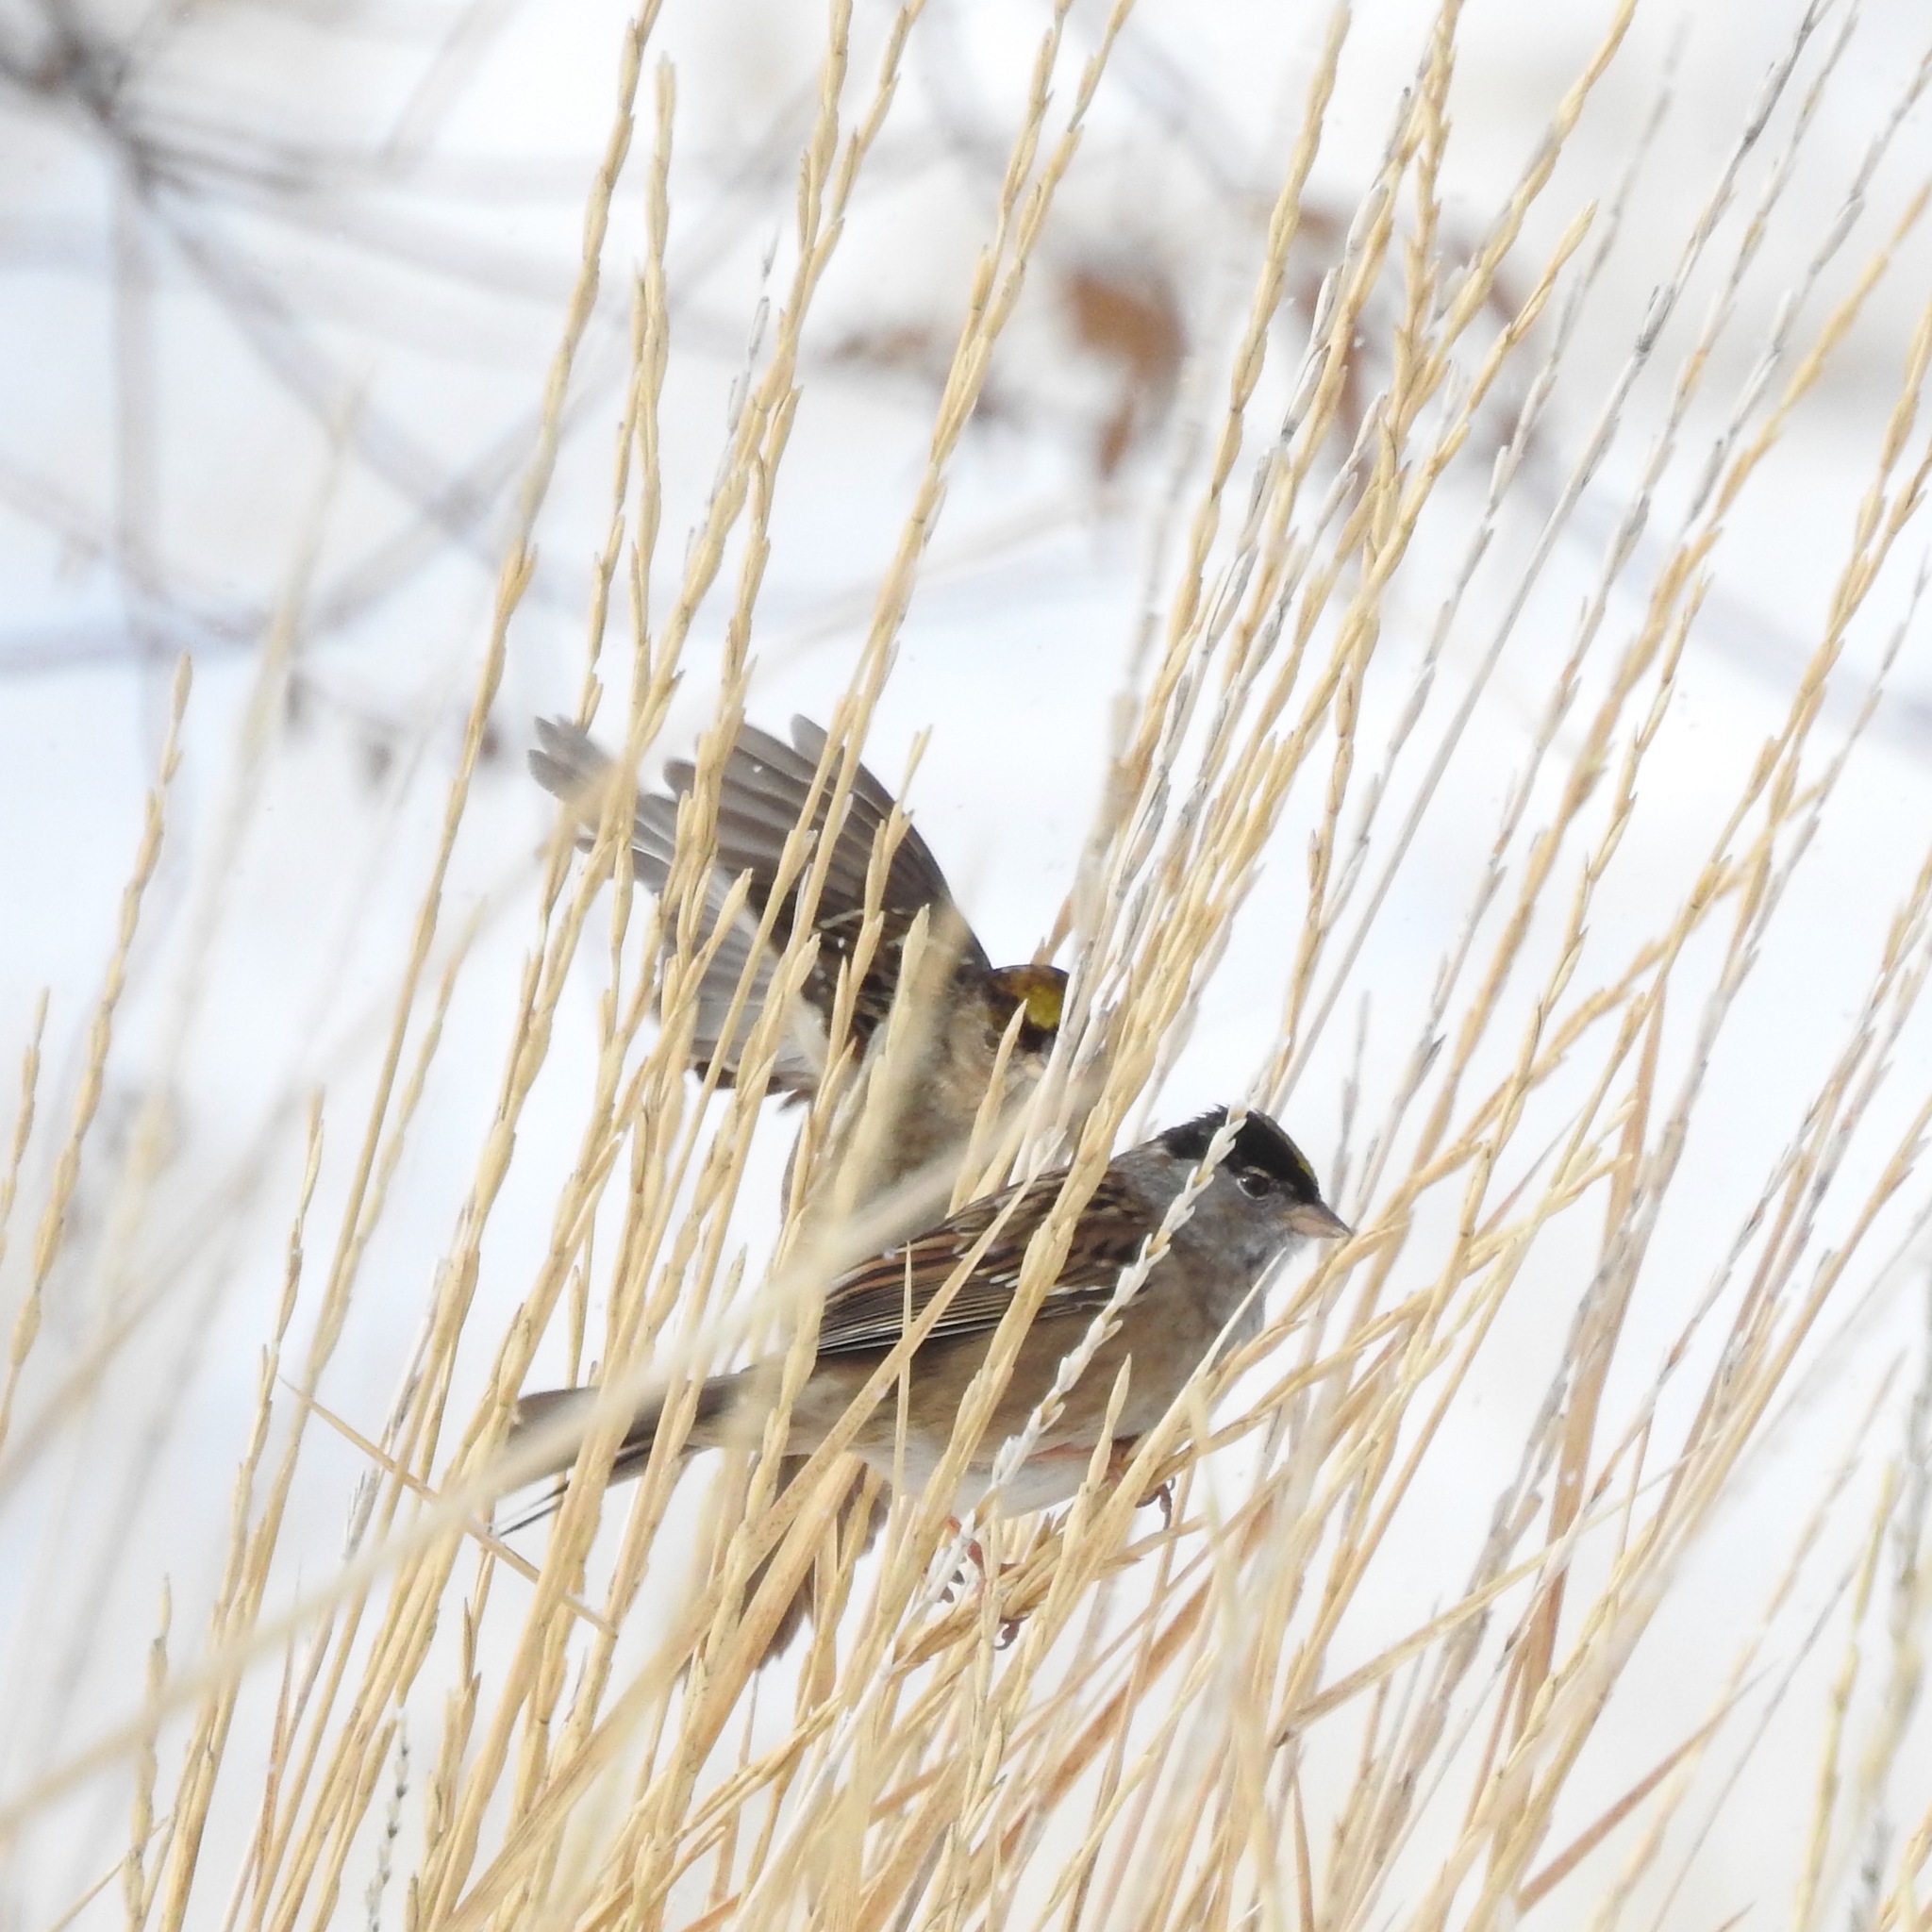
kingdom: Animalia
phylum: Chordata
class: Aves
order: Passeriformes
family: Passerellidae
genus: Zonotrichia
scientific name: Zonotrichia atricapilla
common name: Golden-crowned sparrow
